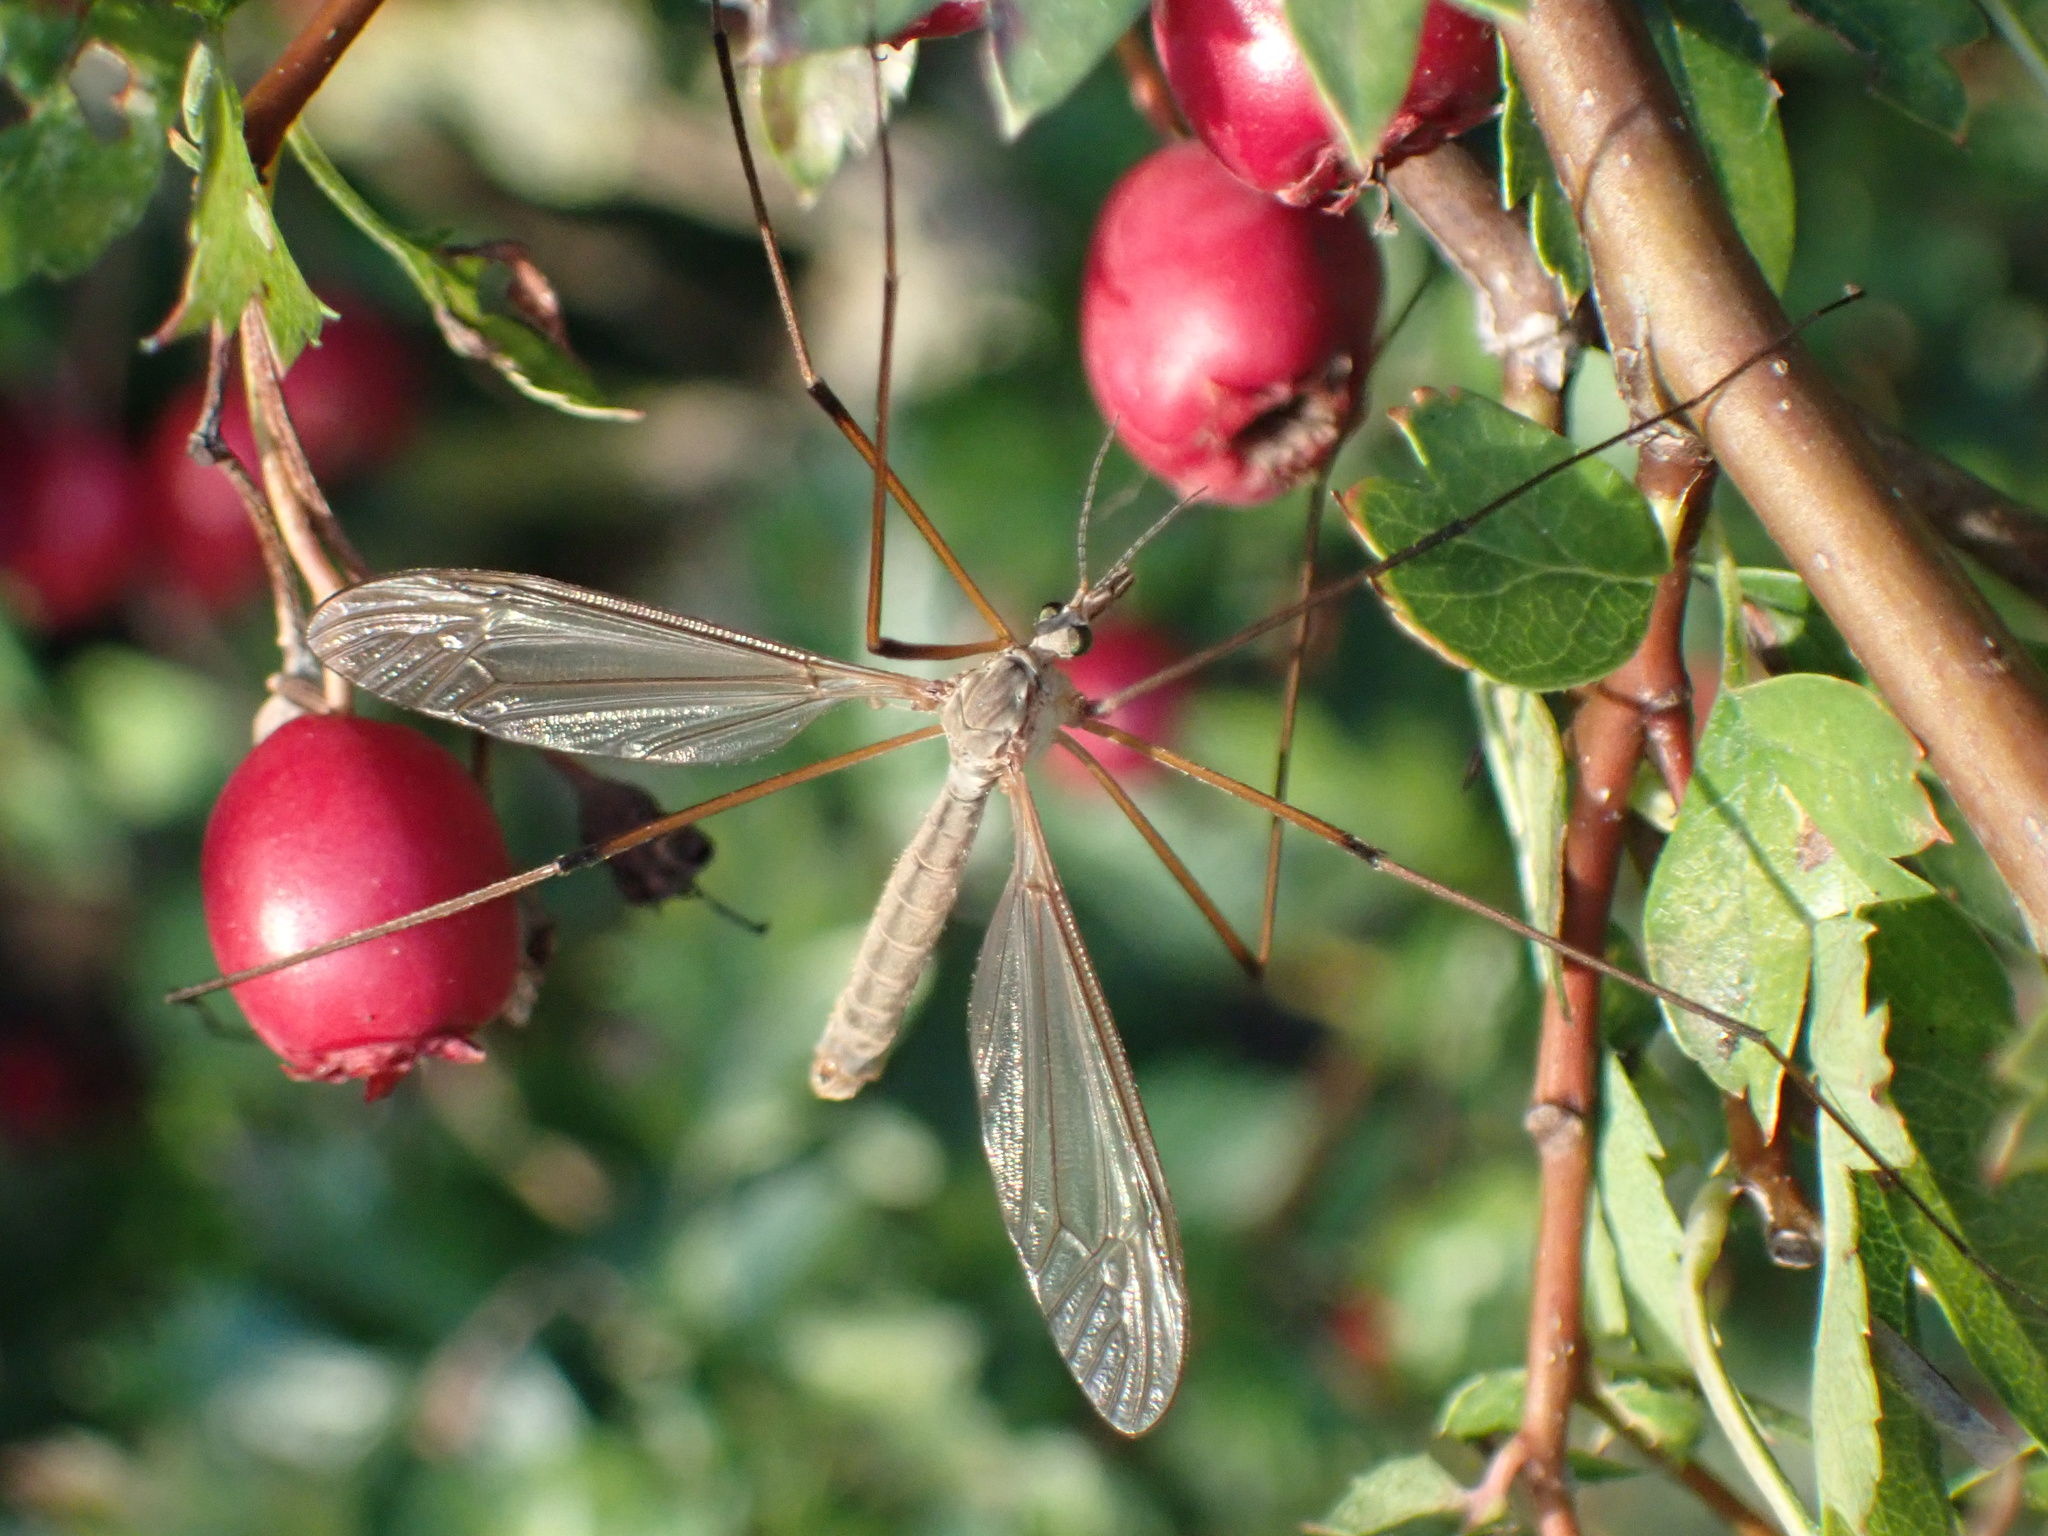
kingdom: Animalia
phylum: Arthropoda
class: Insecta
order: Diptera
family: Tipulidae
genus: Tipula
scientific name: Tipula paludosa
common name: European cranefly
